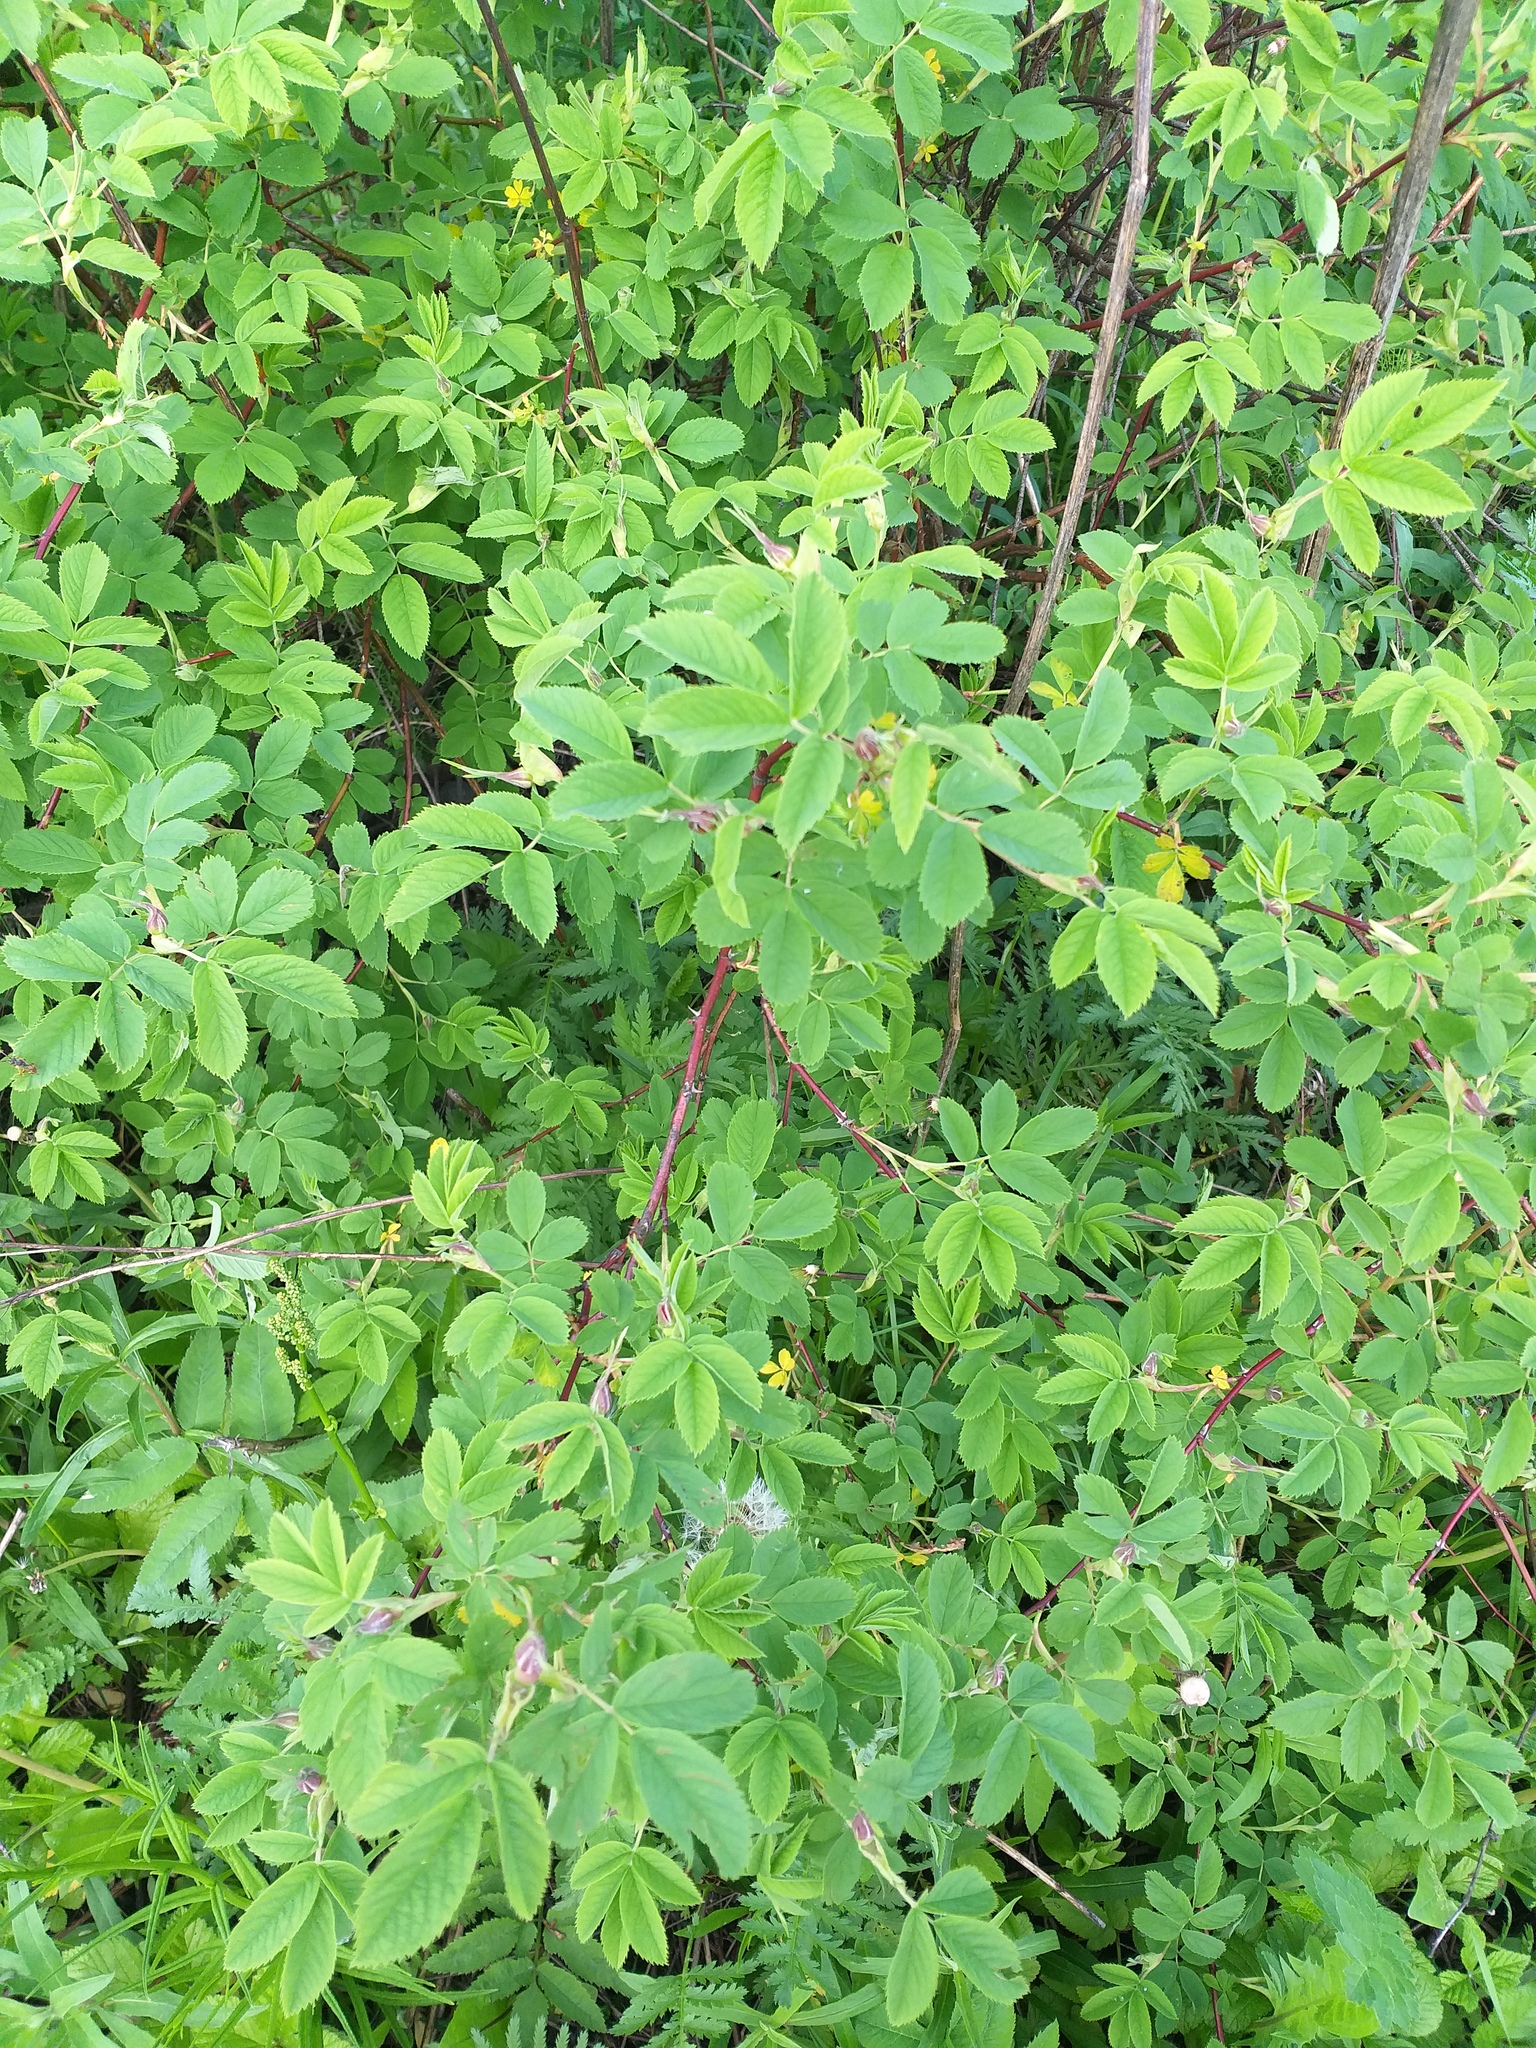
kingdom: Plantae
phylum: Tracheophyta
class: Magnoliopsida
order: Rosales
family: Rosaceae
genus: Rosa
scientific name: Rosa majalis
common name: Cinnamon rose
